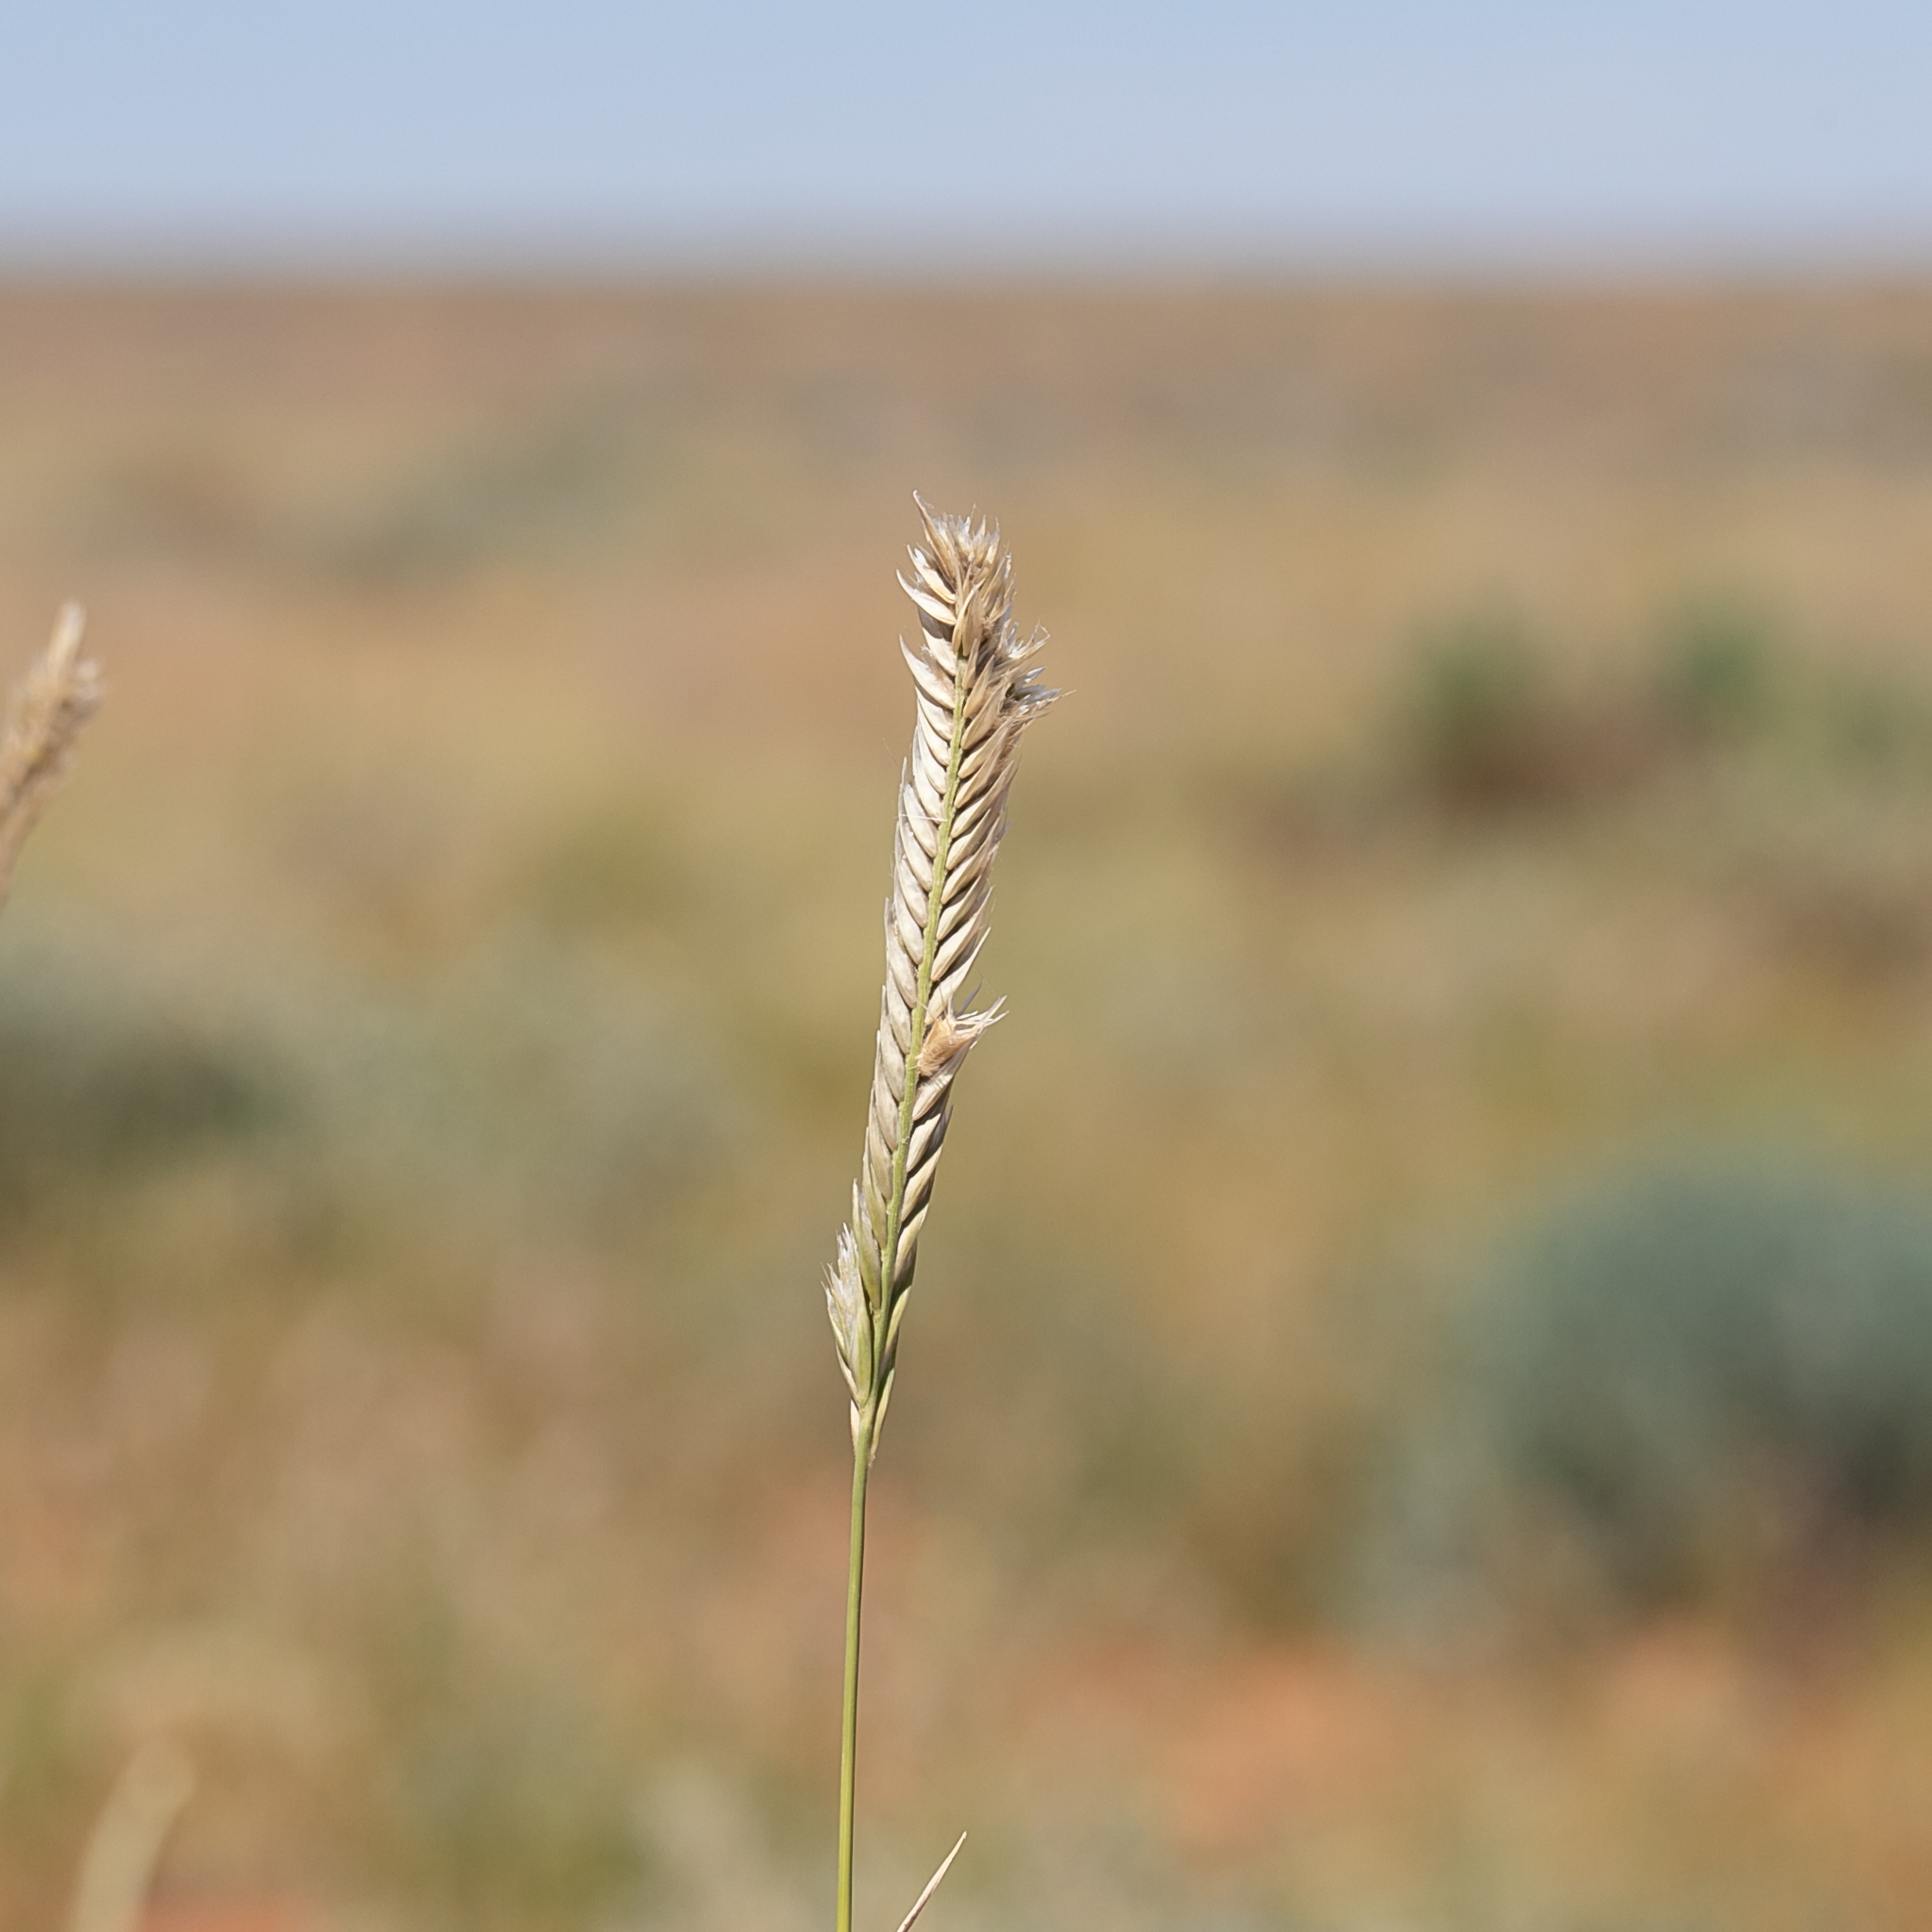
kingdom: Plantae
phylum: Tracheophyta
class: Liliopsida
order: Poales
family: Poaceae
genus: Astrebla
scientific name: Astrebla pectinata
